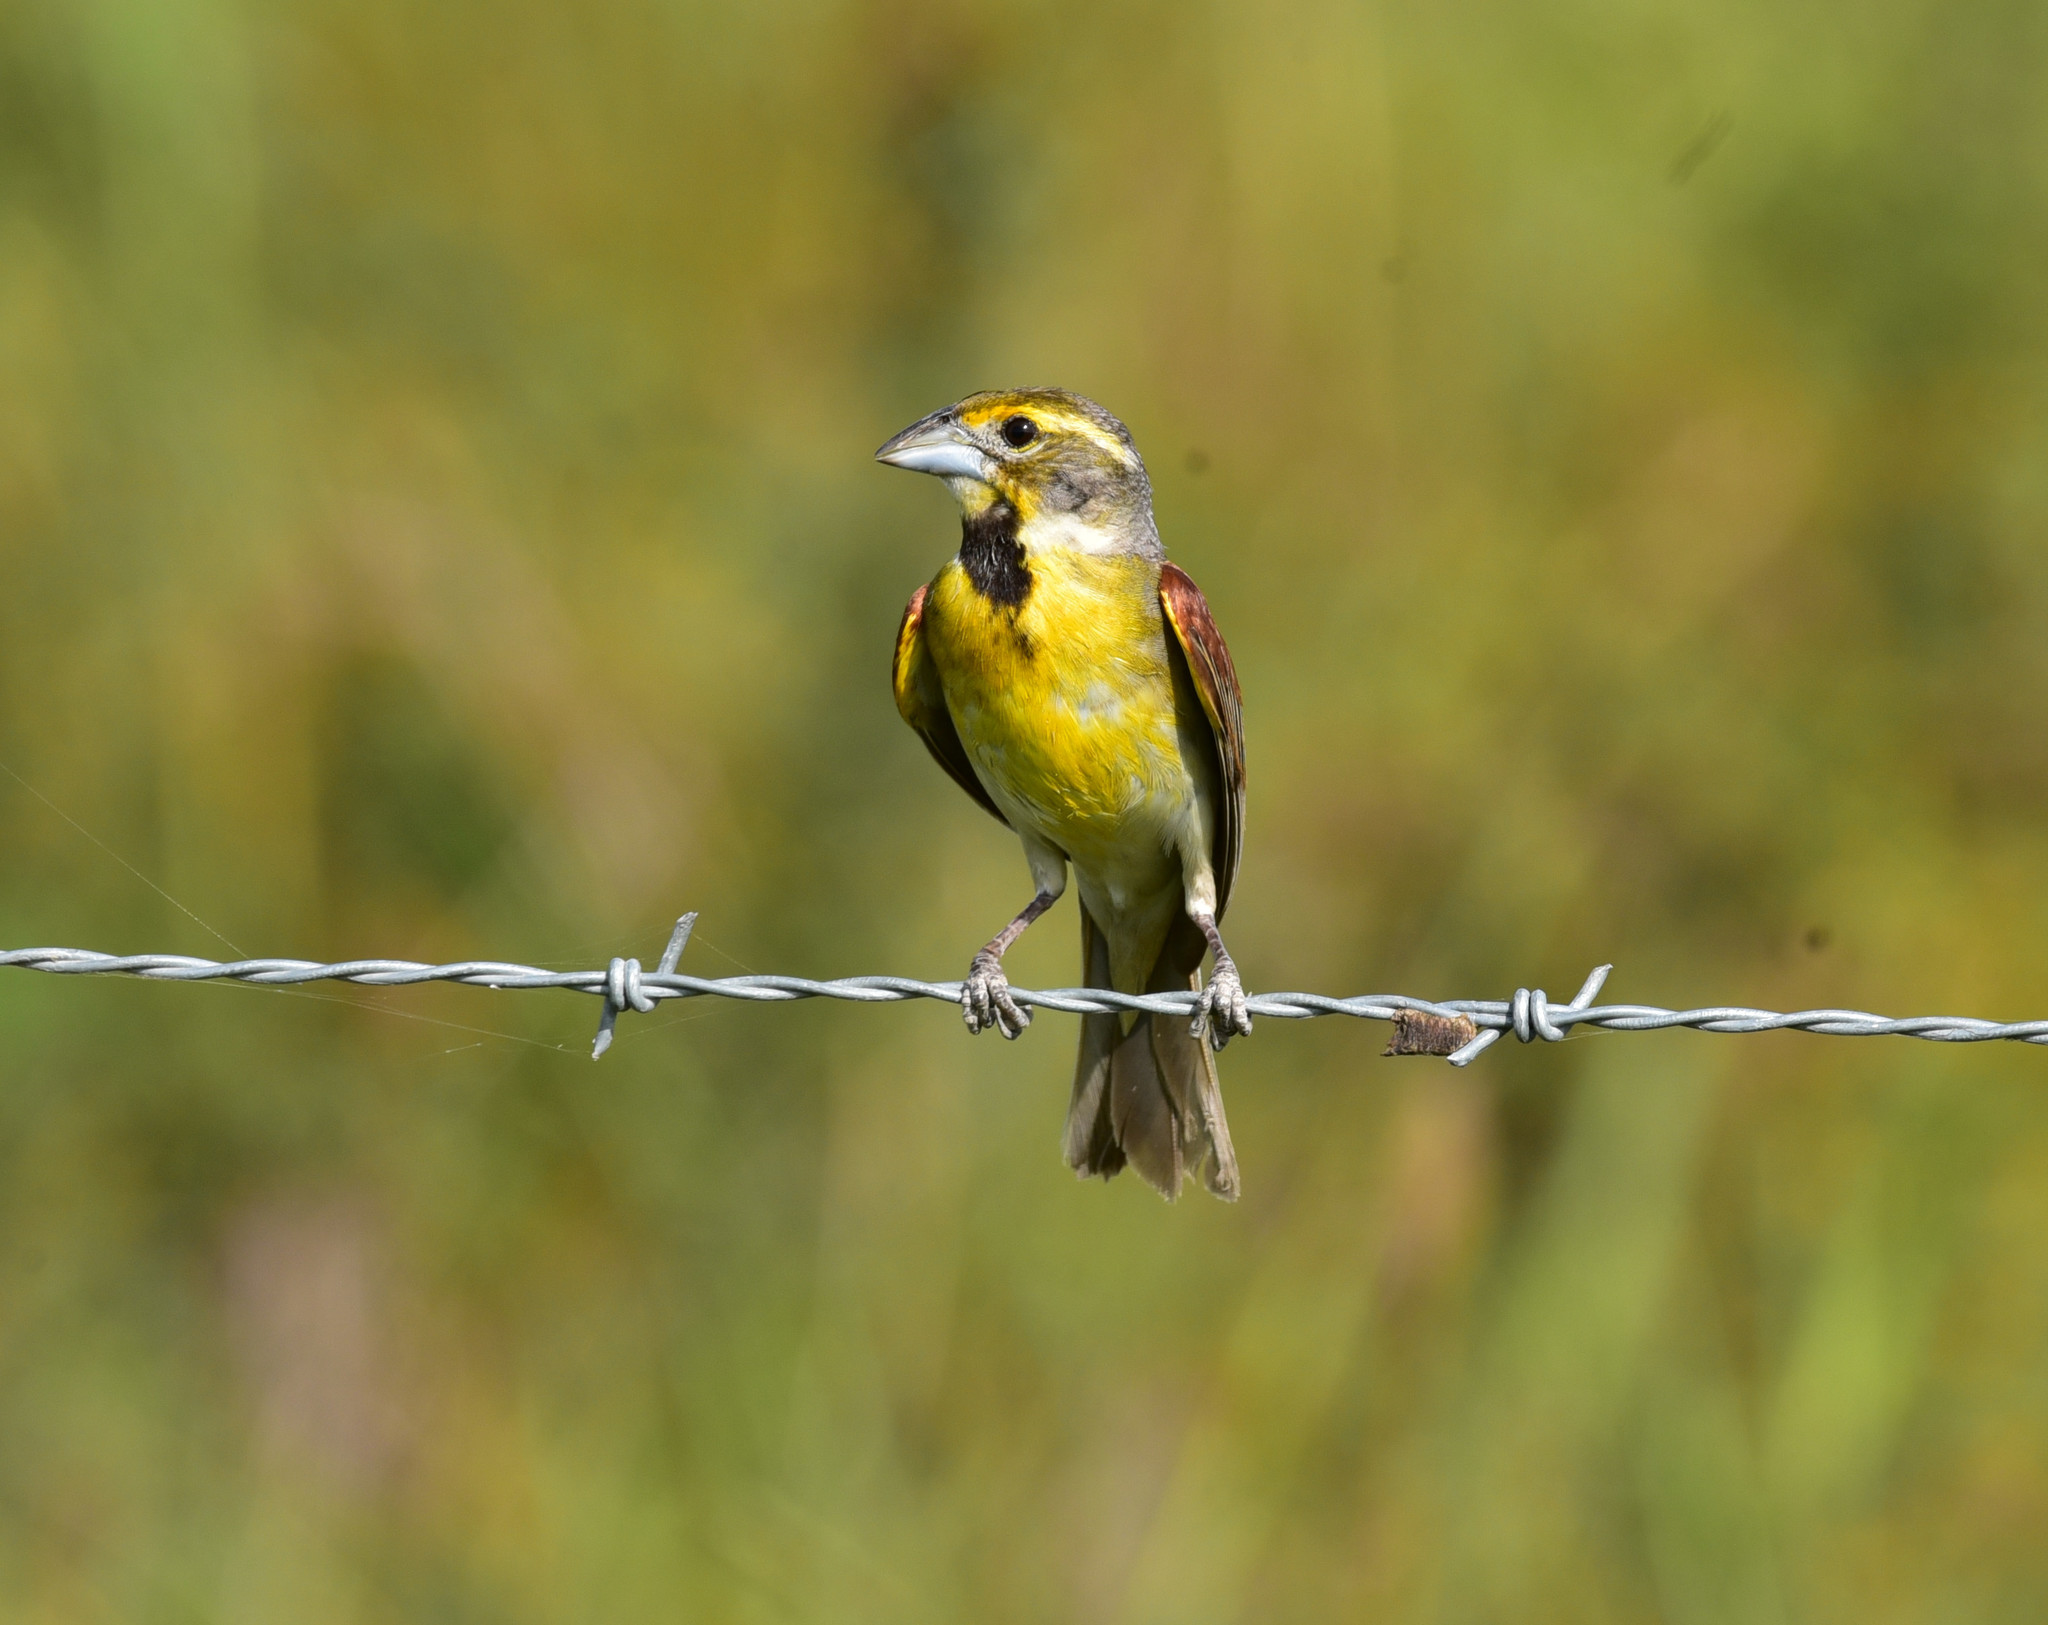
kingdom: Animalia
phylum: Chordata
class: Aves
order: Passeriformes
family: Cardinalidae
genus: Spiza
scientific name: Spiza americana
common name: Dickcissel
